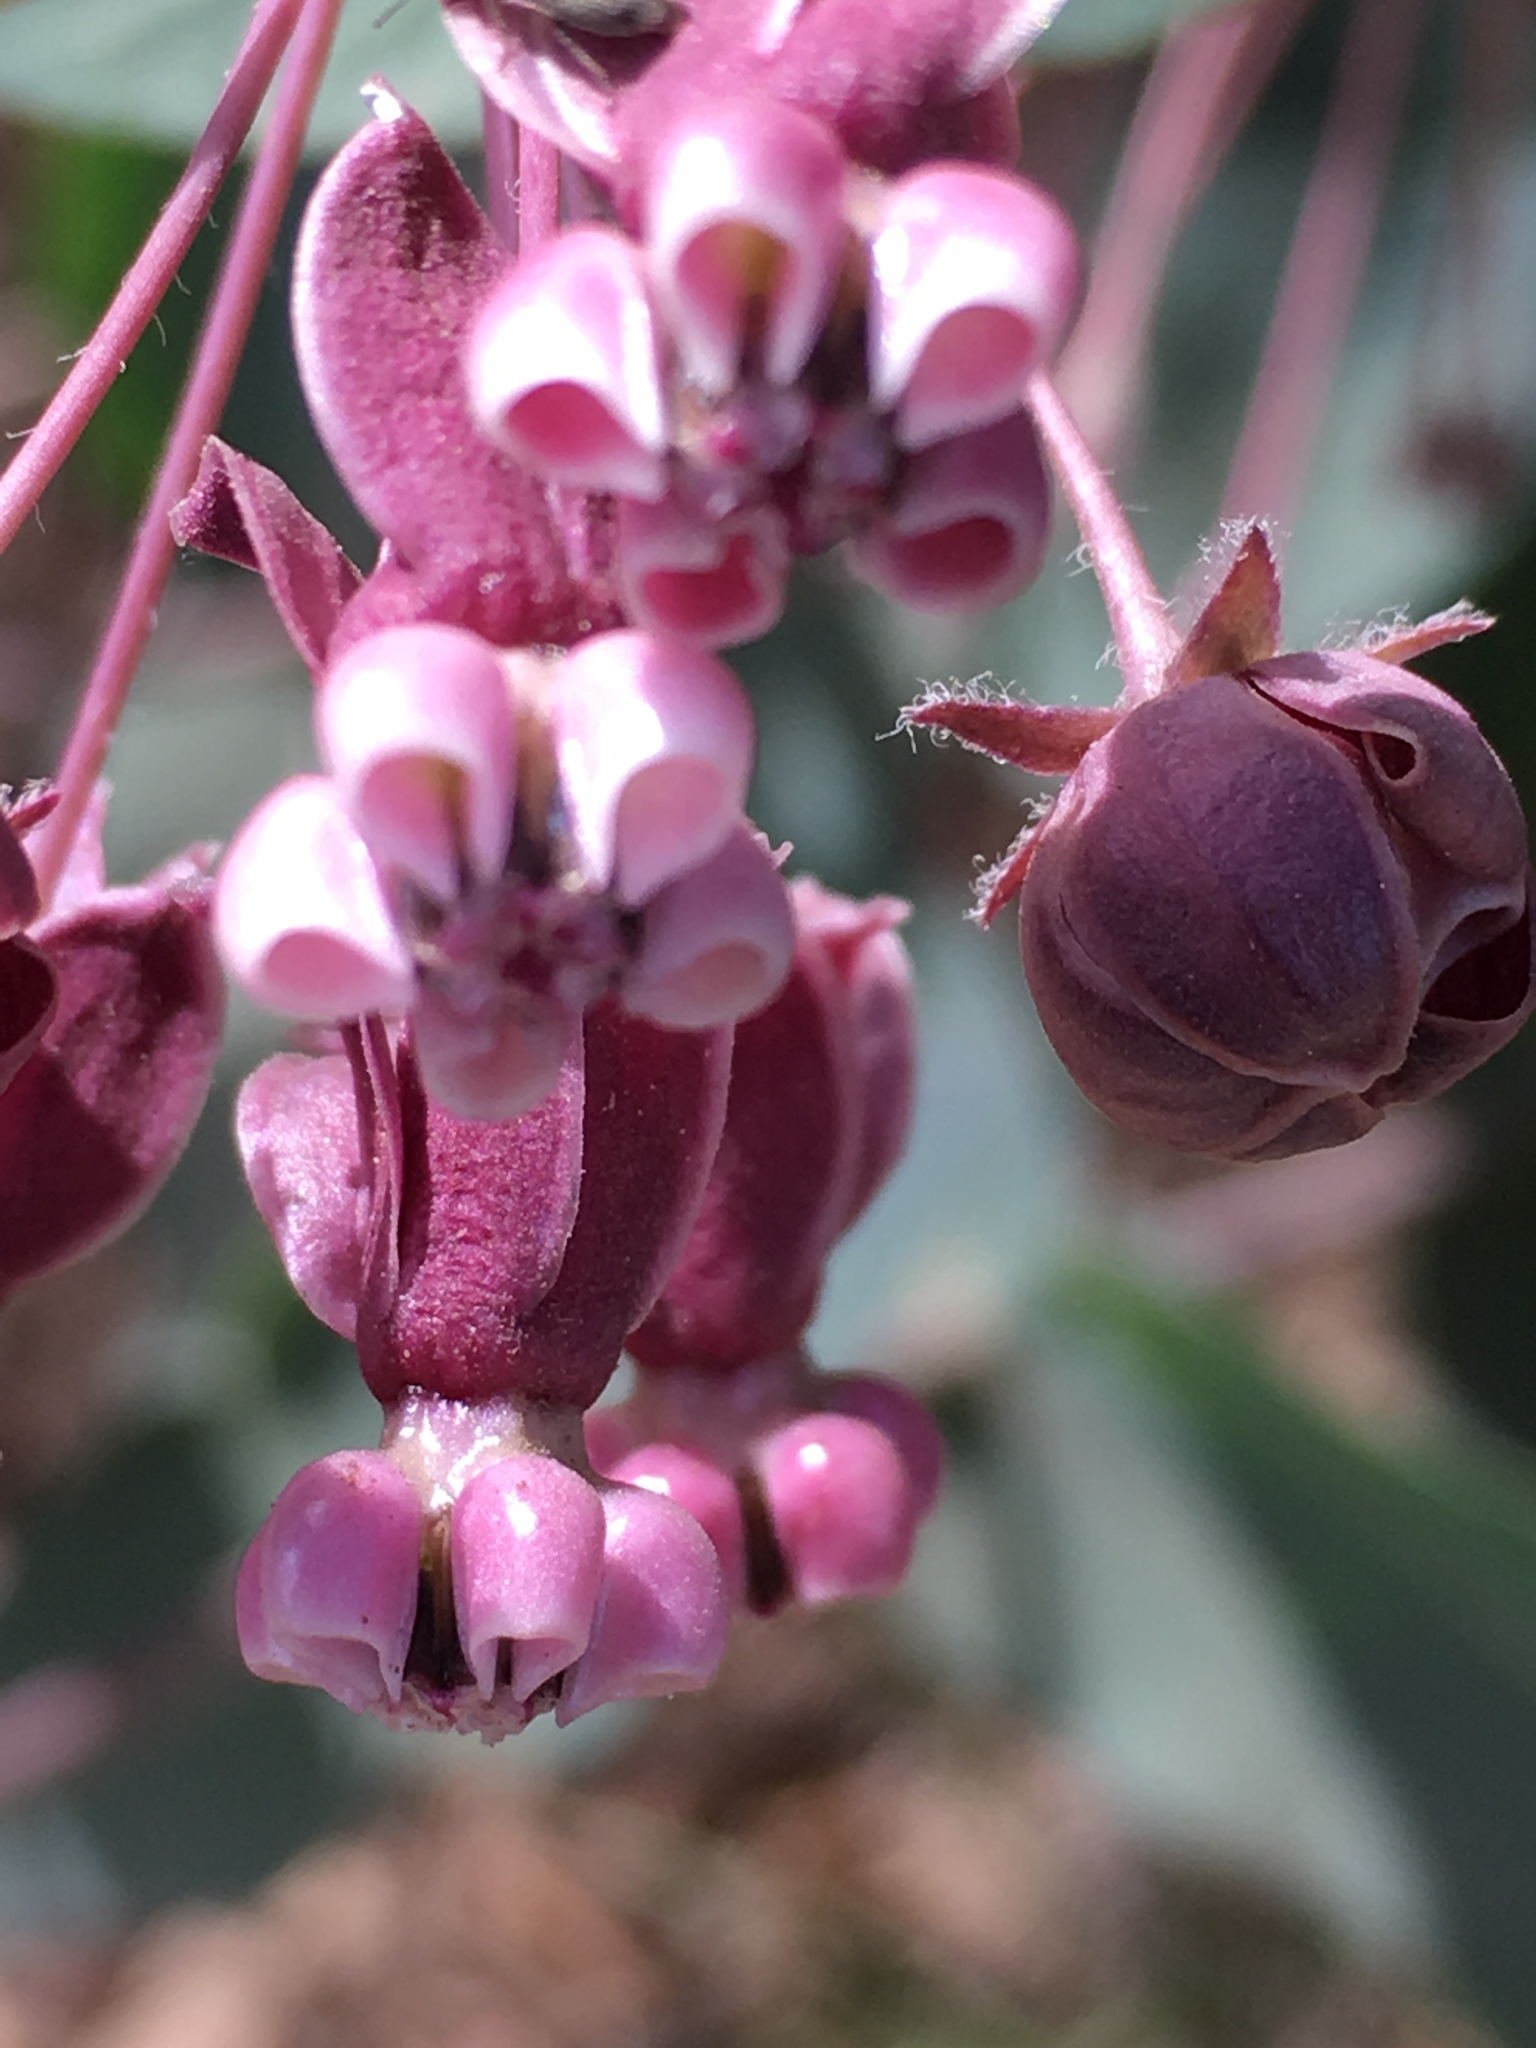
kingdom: Plantae
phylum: Tracheophyta
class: Magnoliopsida
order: Gentianales
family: Apocynaceae
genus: Asclepias
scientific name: Asclepias cordifolia
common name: Purple milkweed
